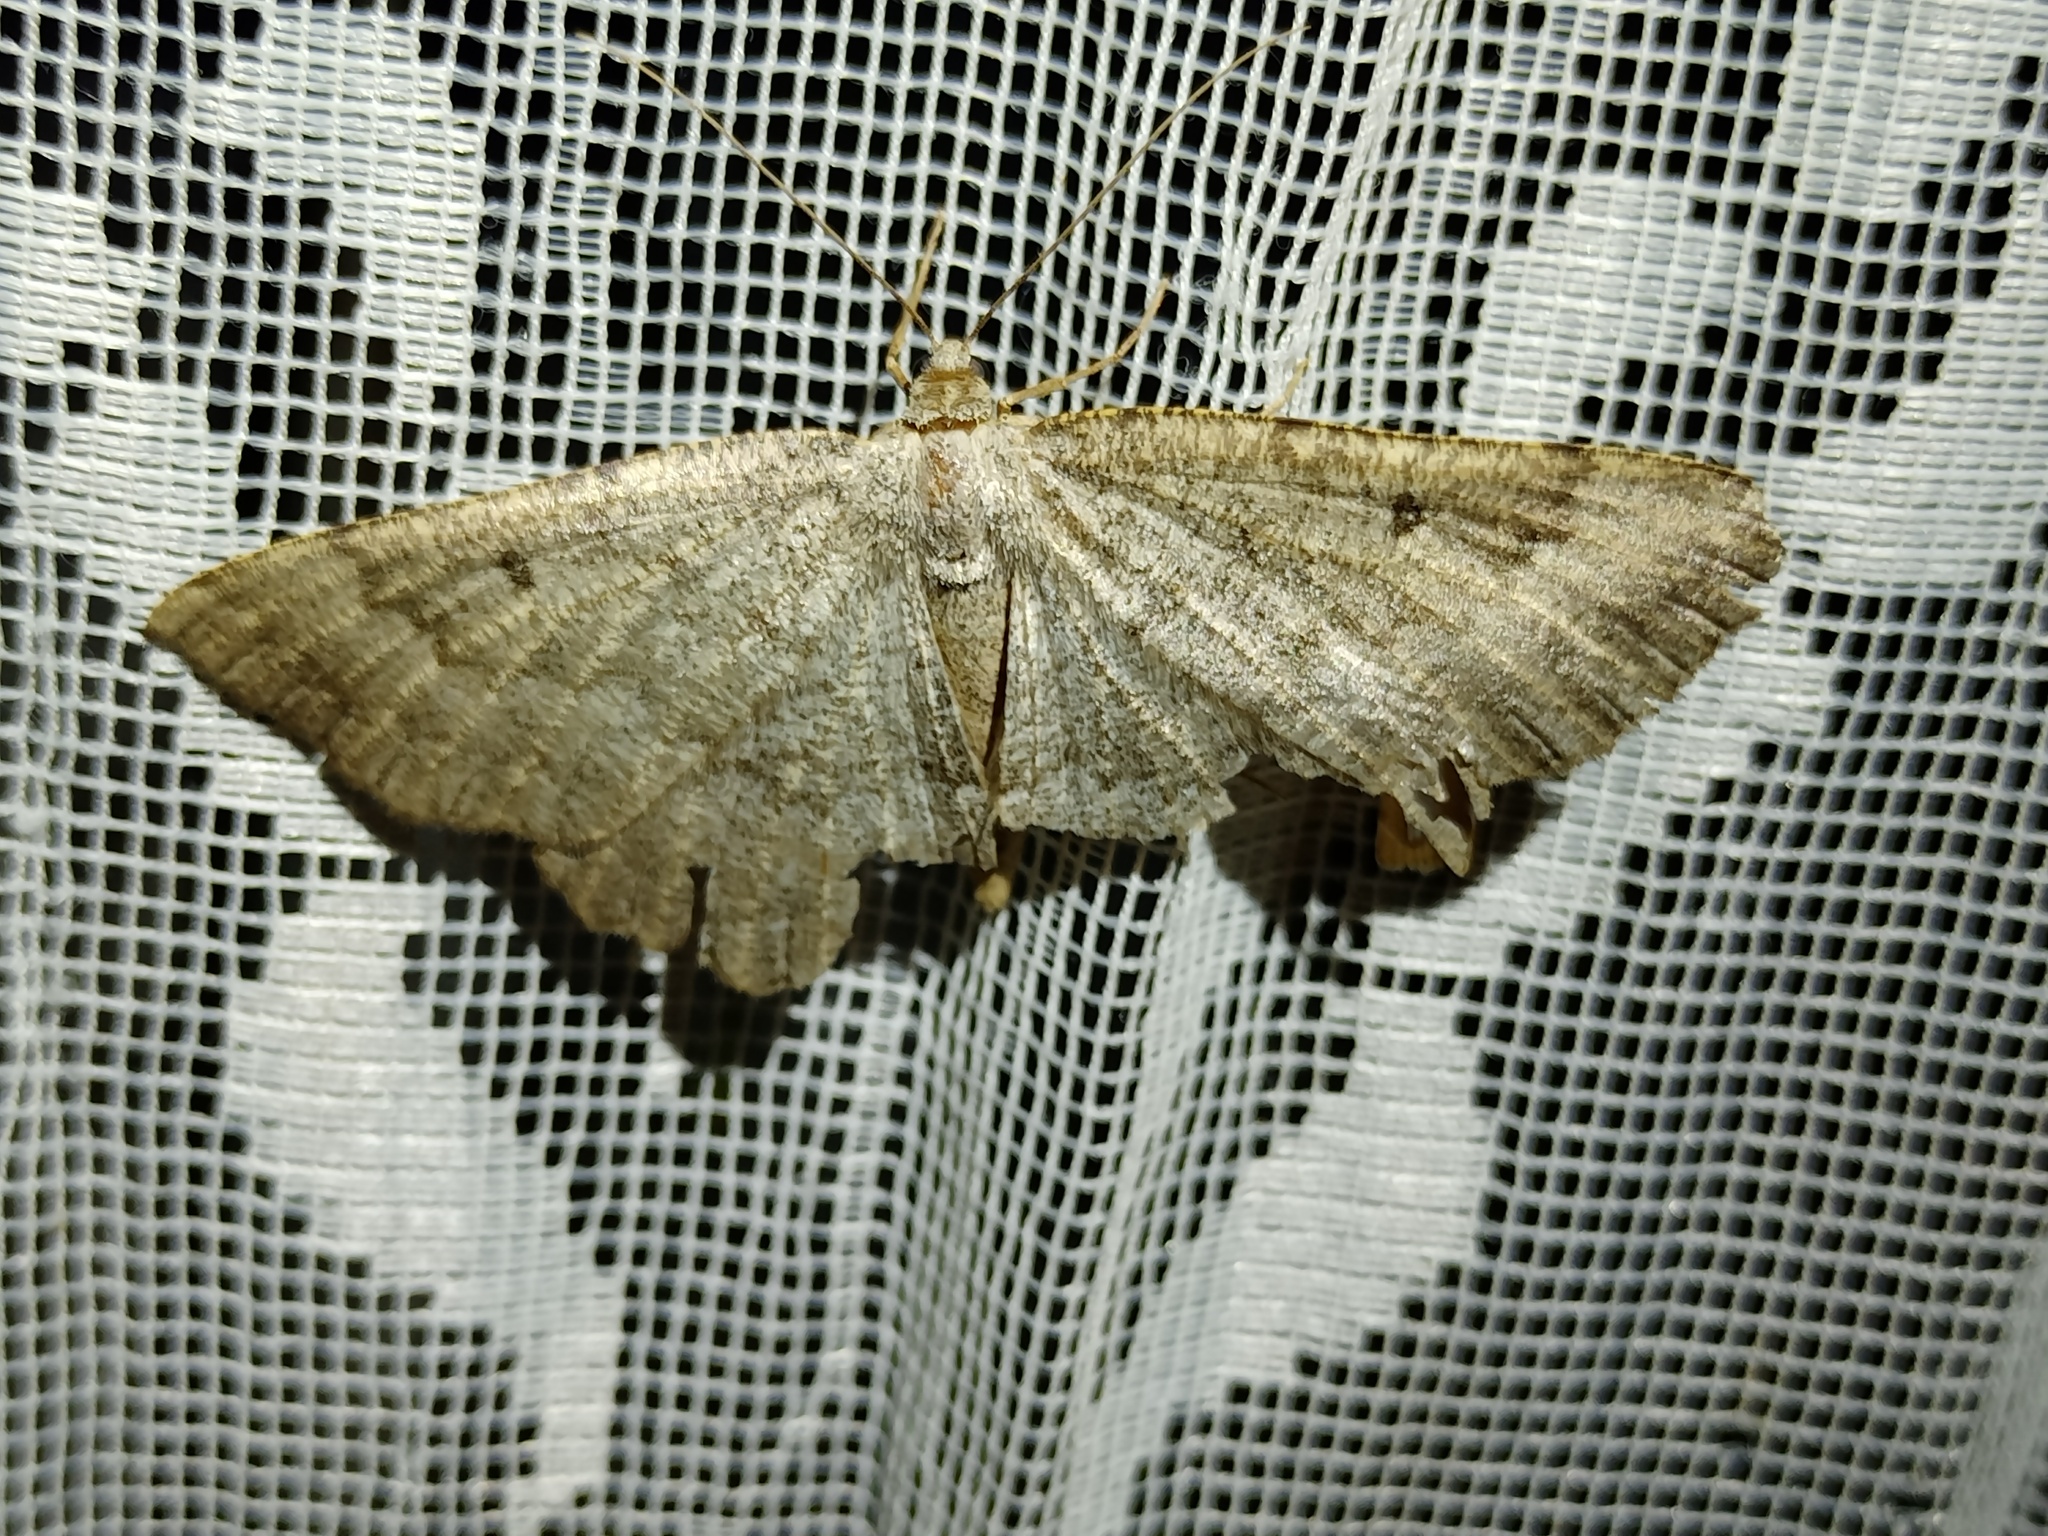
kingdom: Animalia
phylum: Arthropoda
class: Insecta
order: Lepidoptera
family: Geometridae
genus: Gnophos
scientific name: Gnophos furvata
